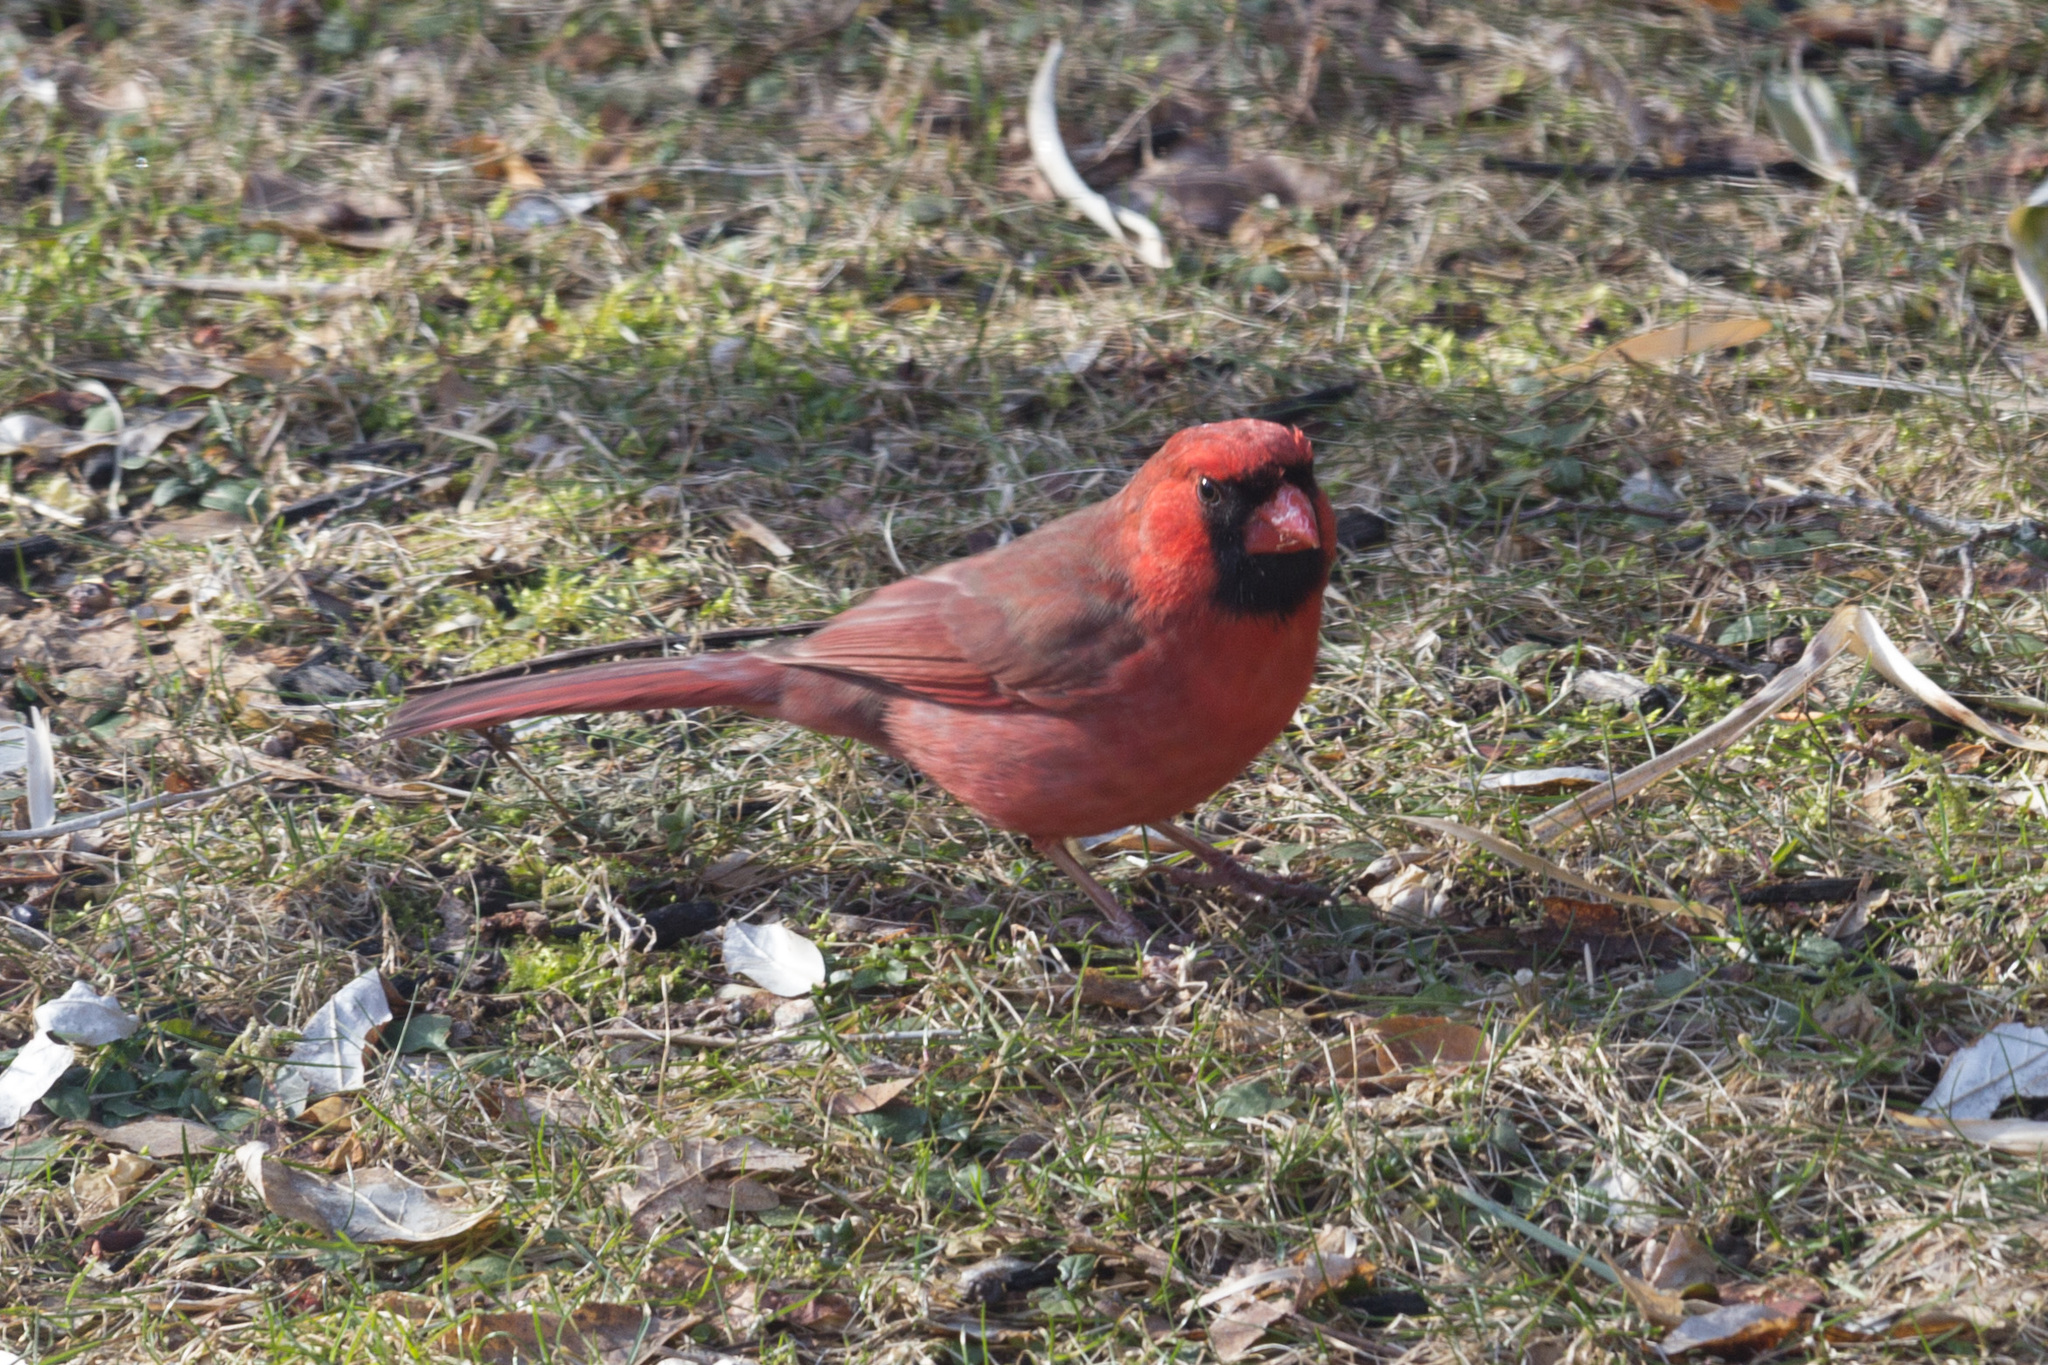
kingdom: Animalia
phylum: Chordata
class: Aves
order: Passeriformes
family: Cardinalidae
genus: Cardinalis
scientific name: Cardinalis cardinalis
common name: Northern cardinal
